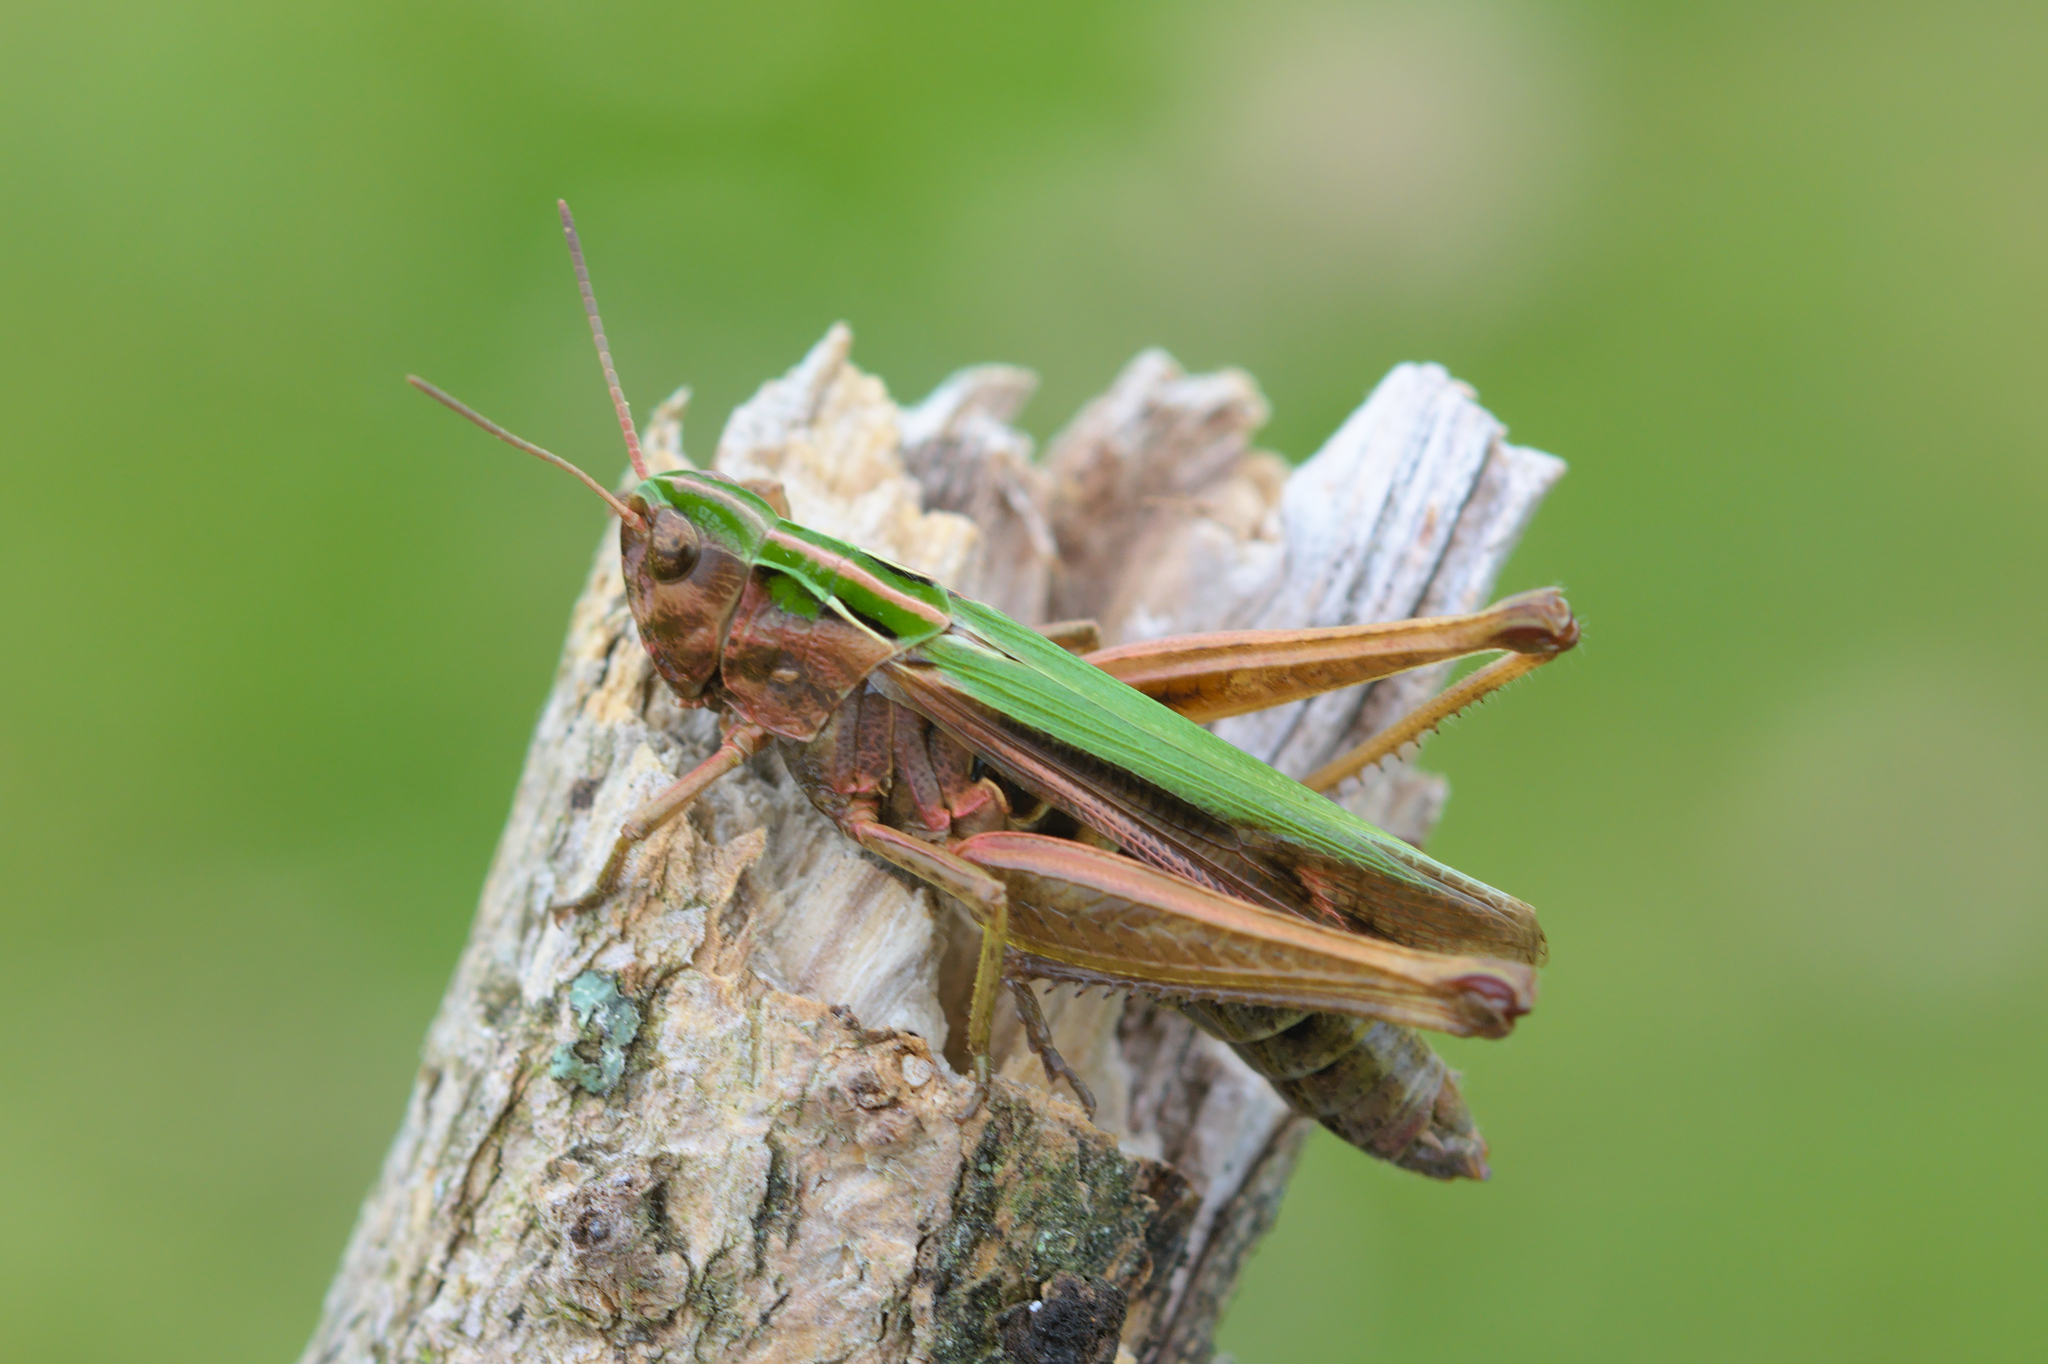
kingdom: Animalia
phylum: Arthropoda
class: Insecta
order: Orthoptera
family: Acrididae
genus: Omocestus
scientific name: Omocestus viridulus
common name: Common green grasshopper
